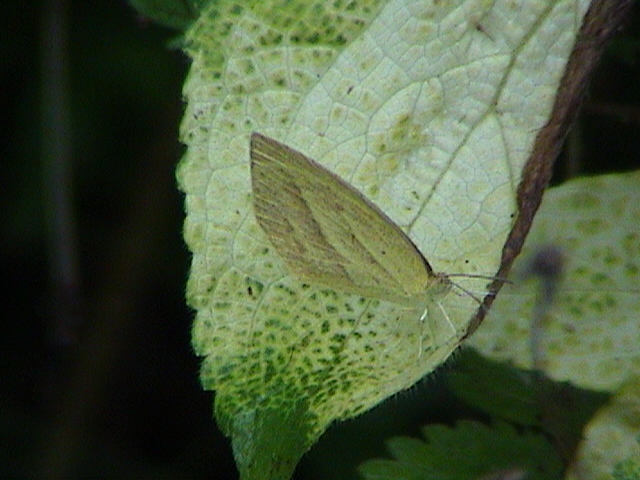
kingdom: Animalia
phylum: Arthropoda
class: Insecta
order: Lepidoptera
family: Pieridae
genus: Eurema
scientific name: Eurema laeta
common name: Spotless grass yellow
